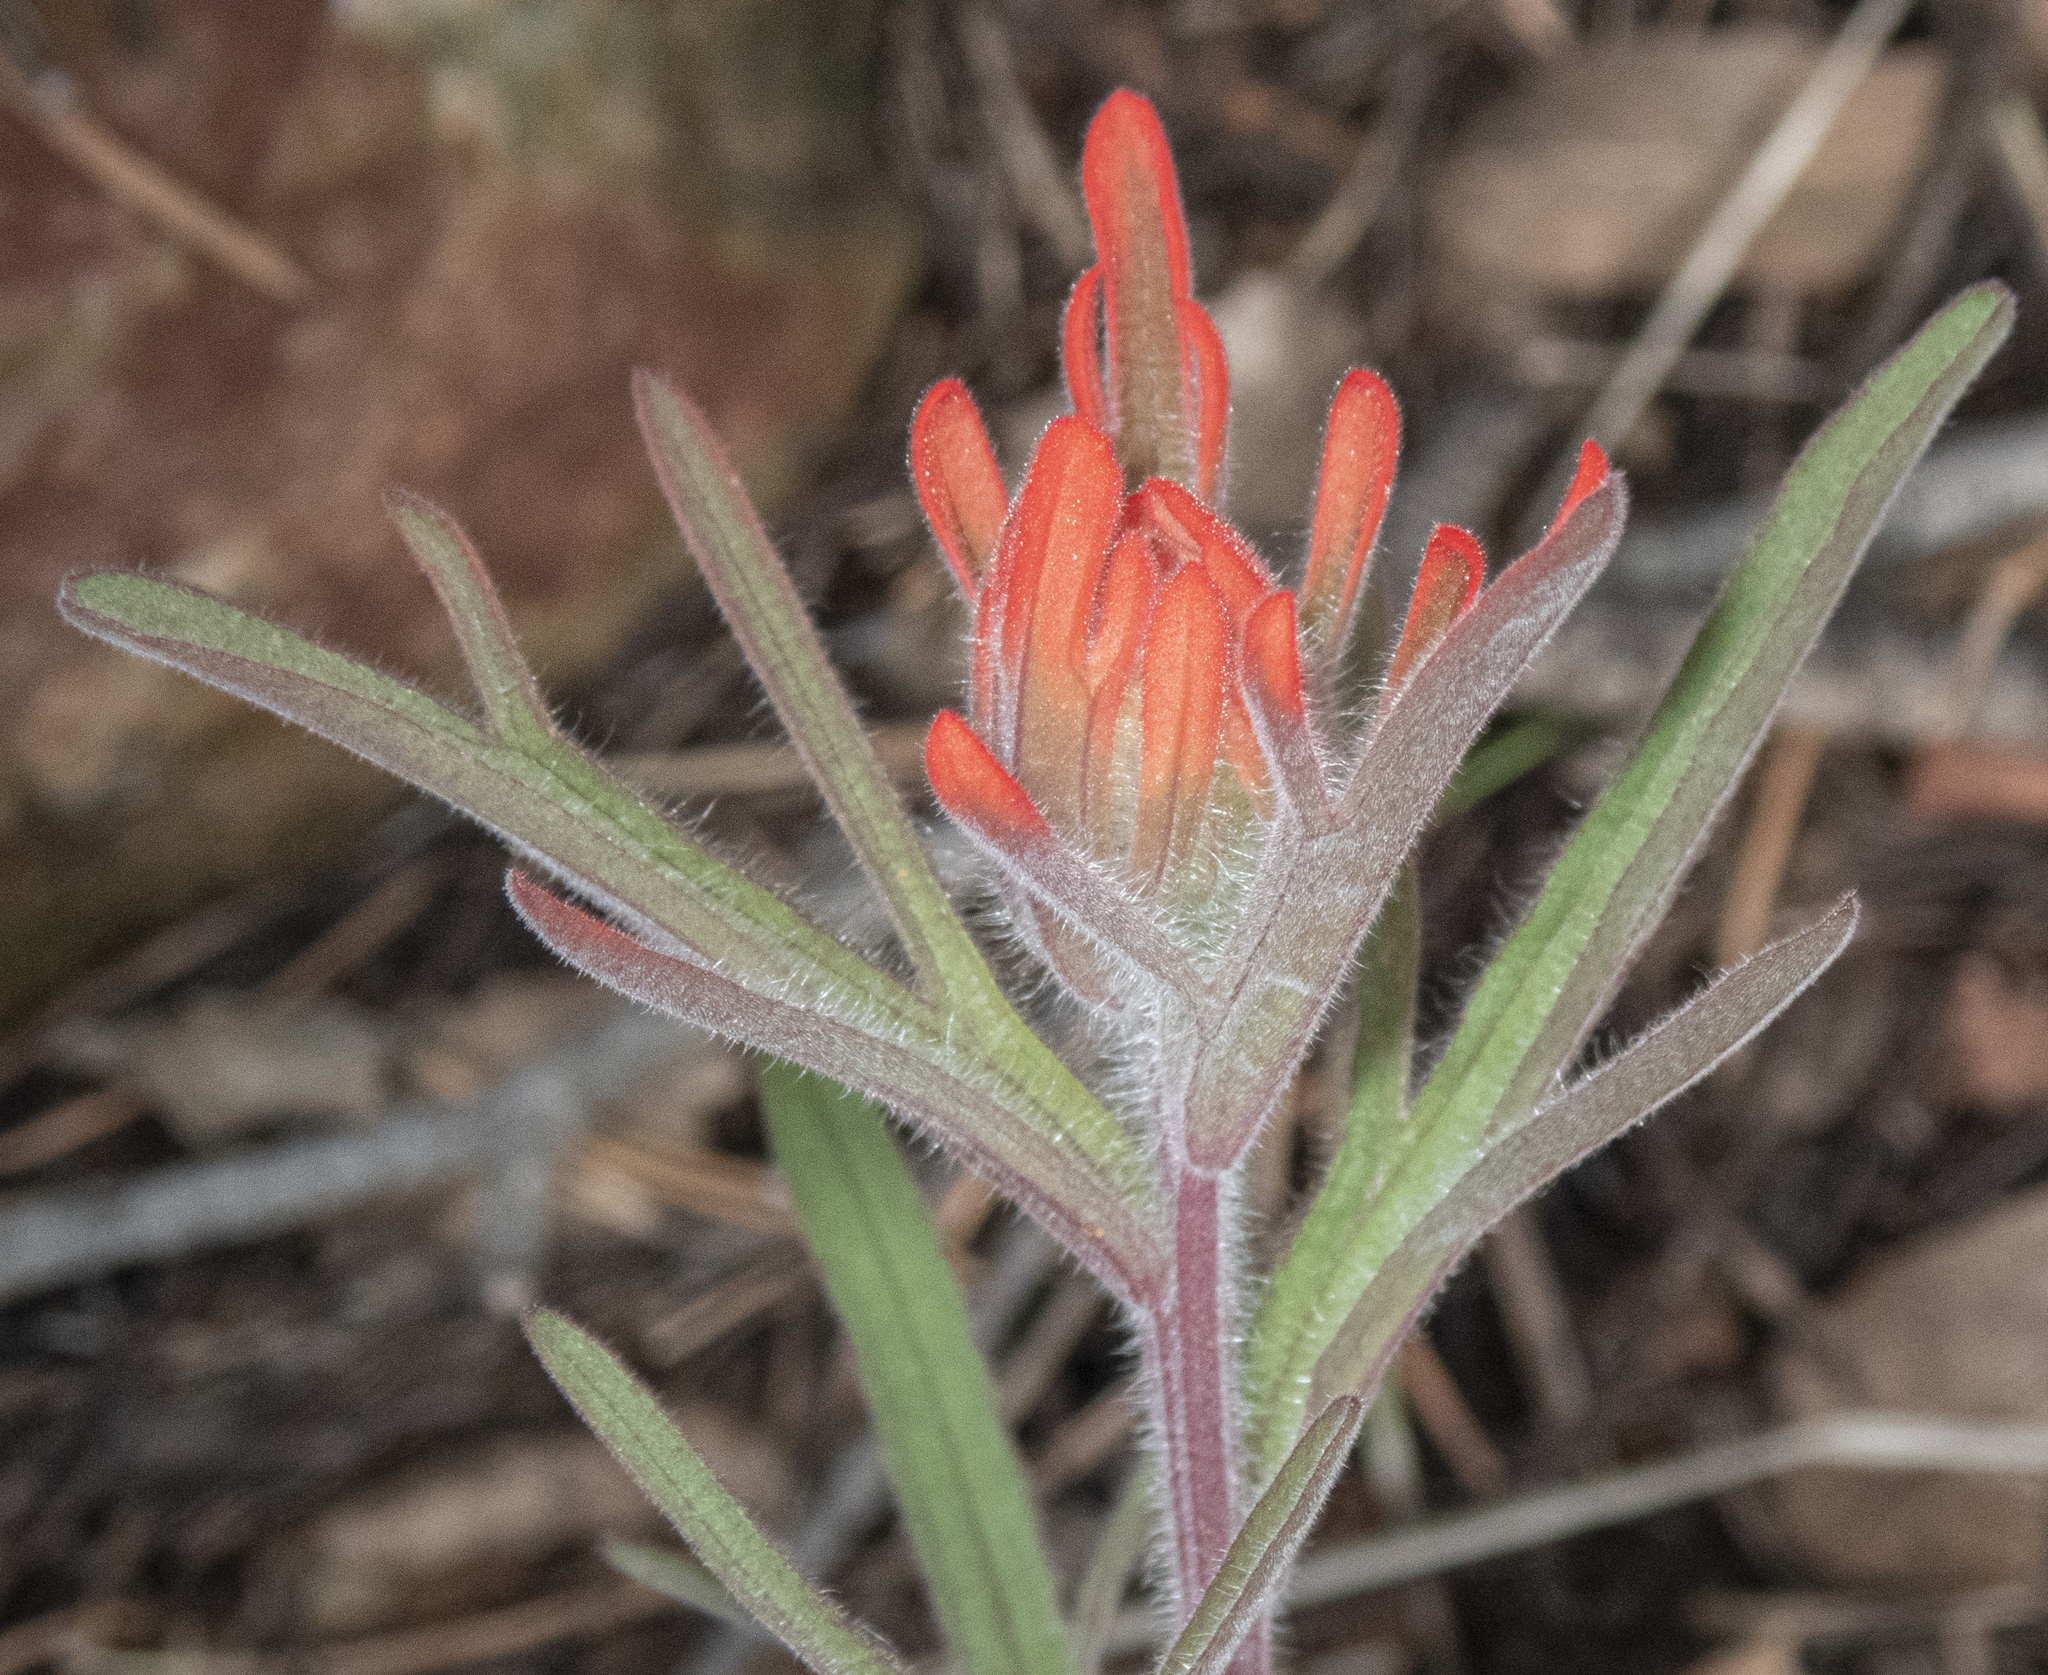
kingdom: Plantae
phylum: Tracheophyta
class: Magnoliopsida
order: Lamiales
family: Orobanchaceae
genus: Castilleja
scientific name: Castilleja chromosa
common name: Desert paintbrush
